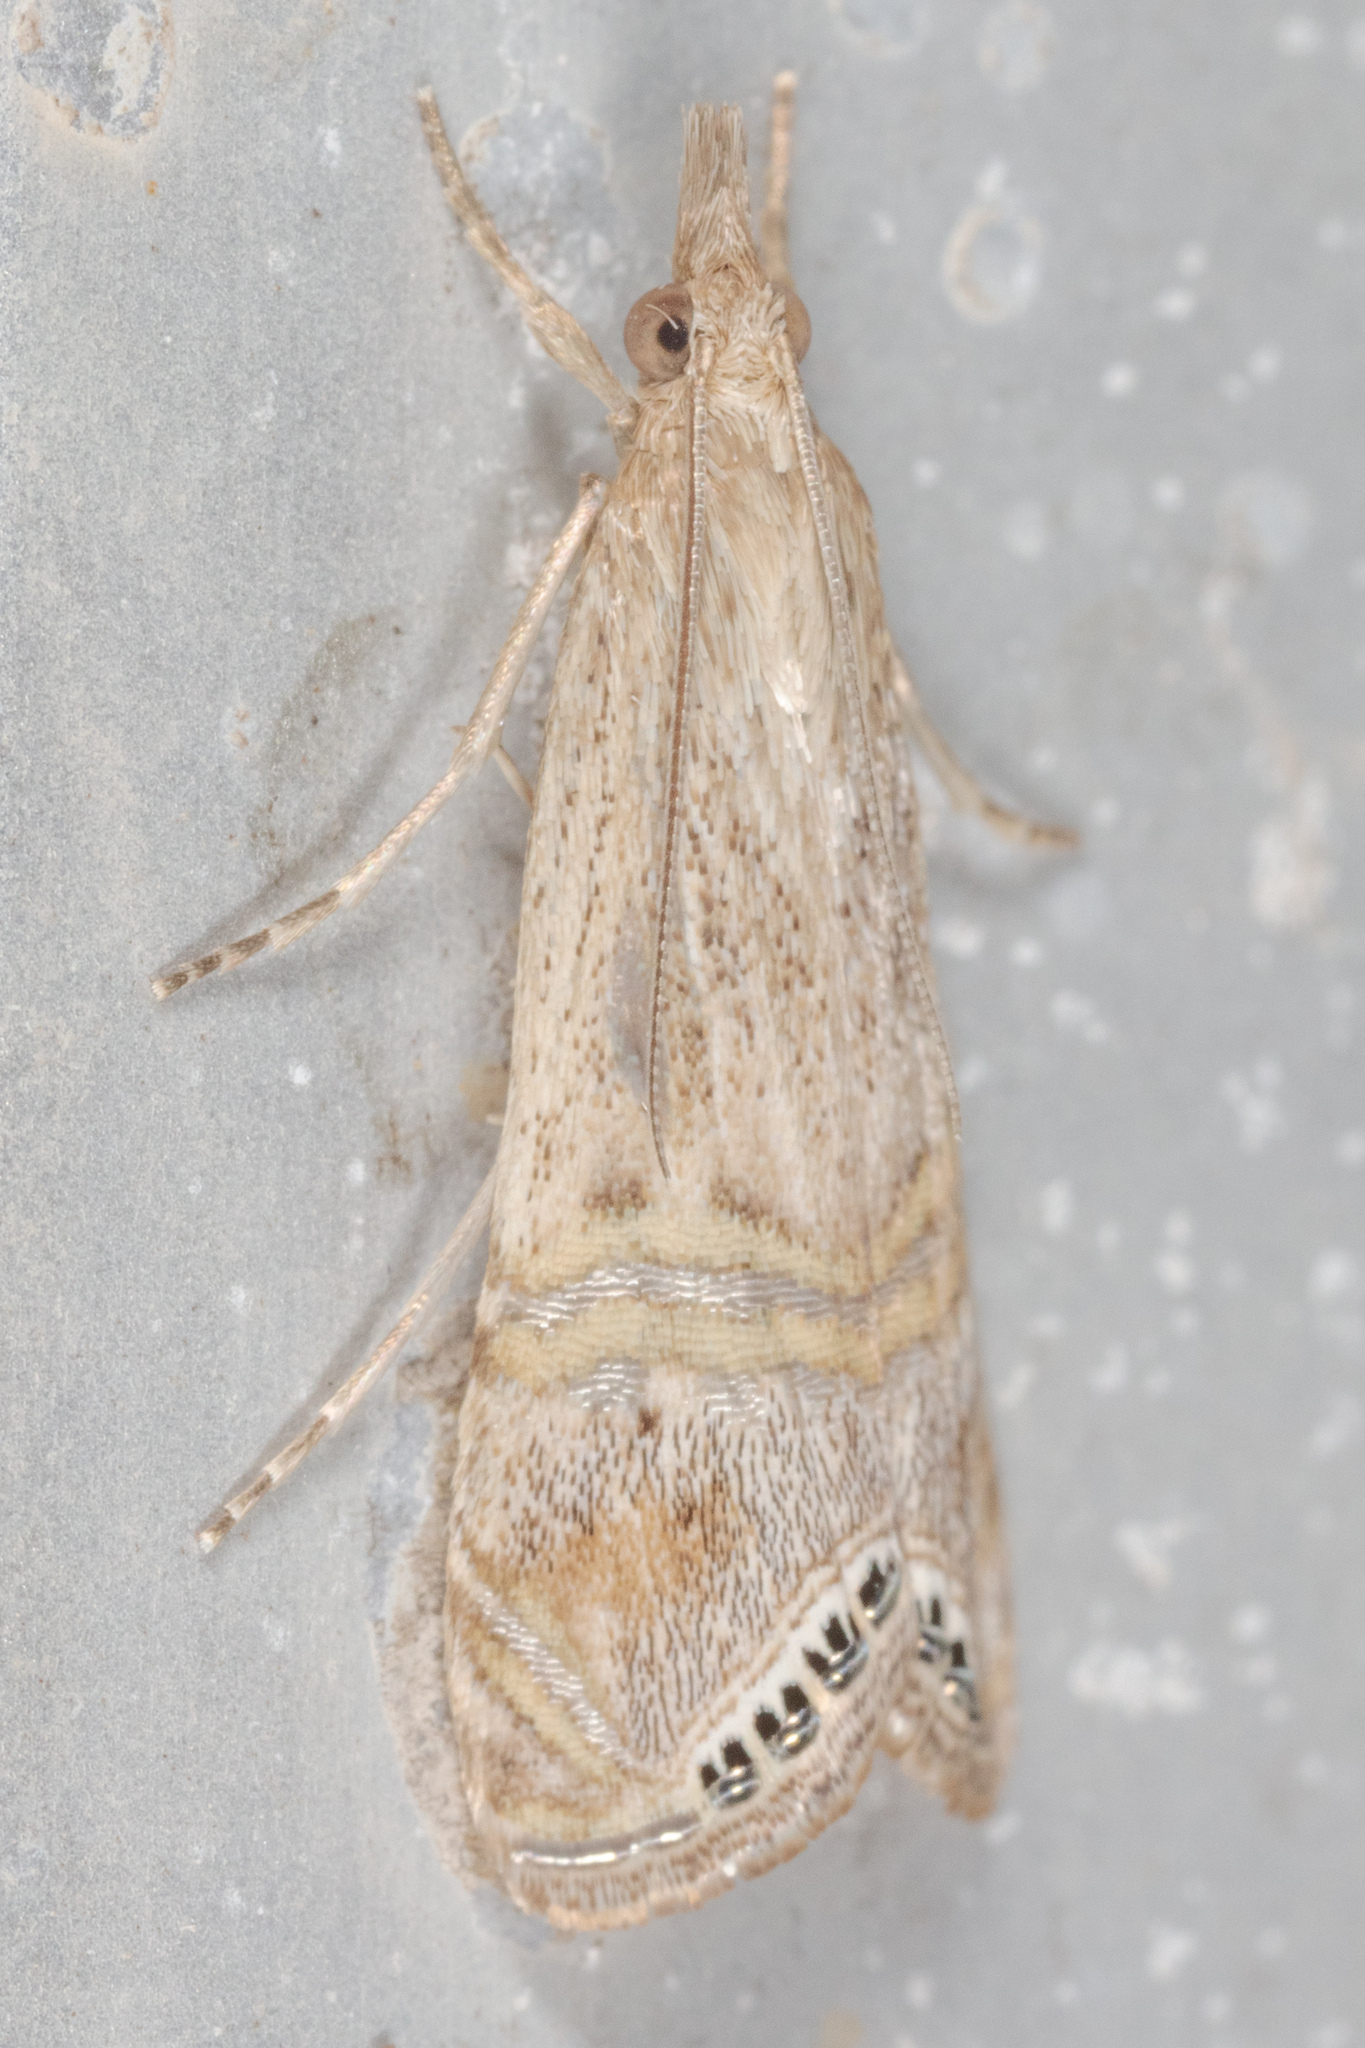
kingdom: Animalia
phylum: Arthropoda
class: Insecta
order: Lepidoptera
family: Crambidae
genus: Euchromius
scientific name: Euchromius ocellea
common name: Necklace veneer moth
